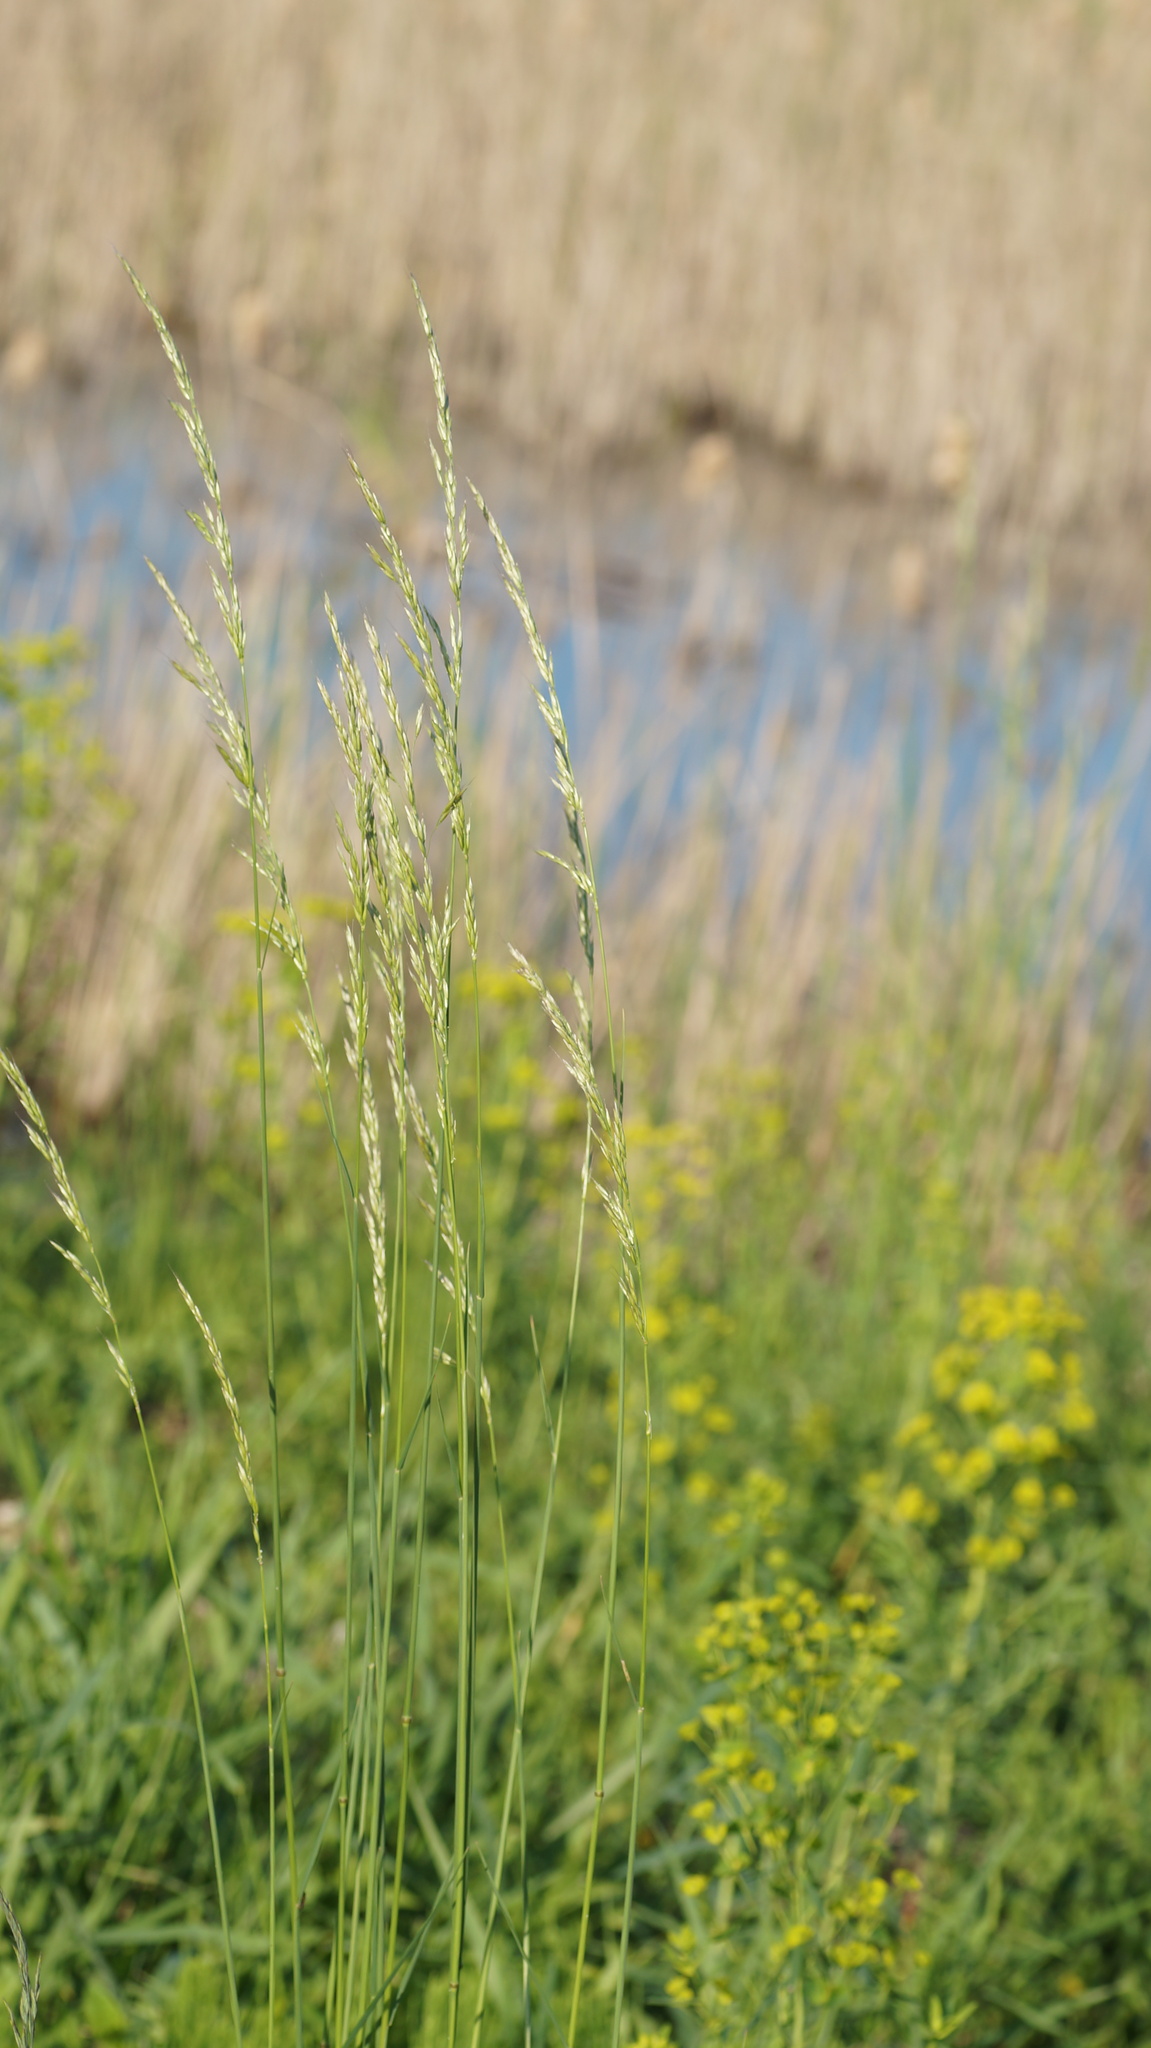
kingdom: Plantae
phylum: Tracheophyta
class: Liliopsida
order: Poales
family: Poaceae
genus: Arrhenatherum
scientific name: Arrhenatherum elatius
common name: Tall oatgrass
